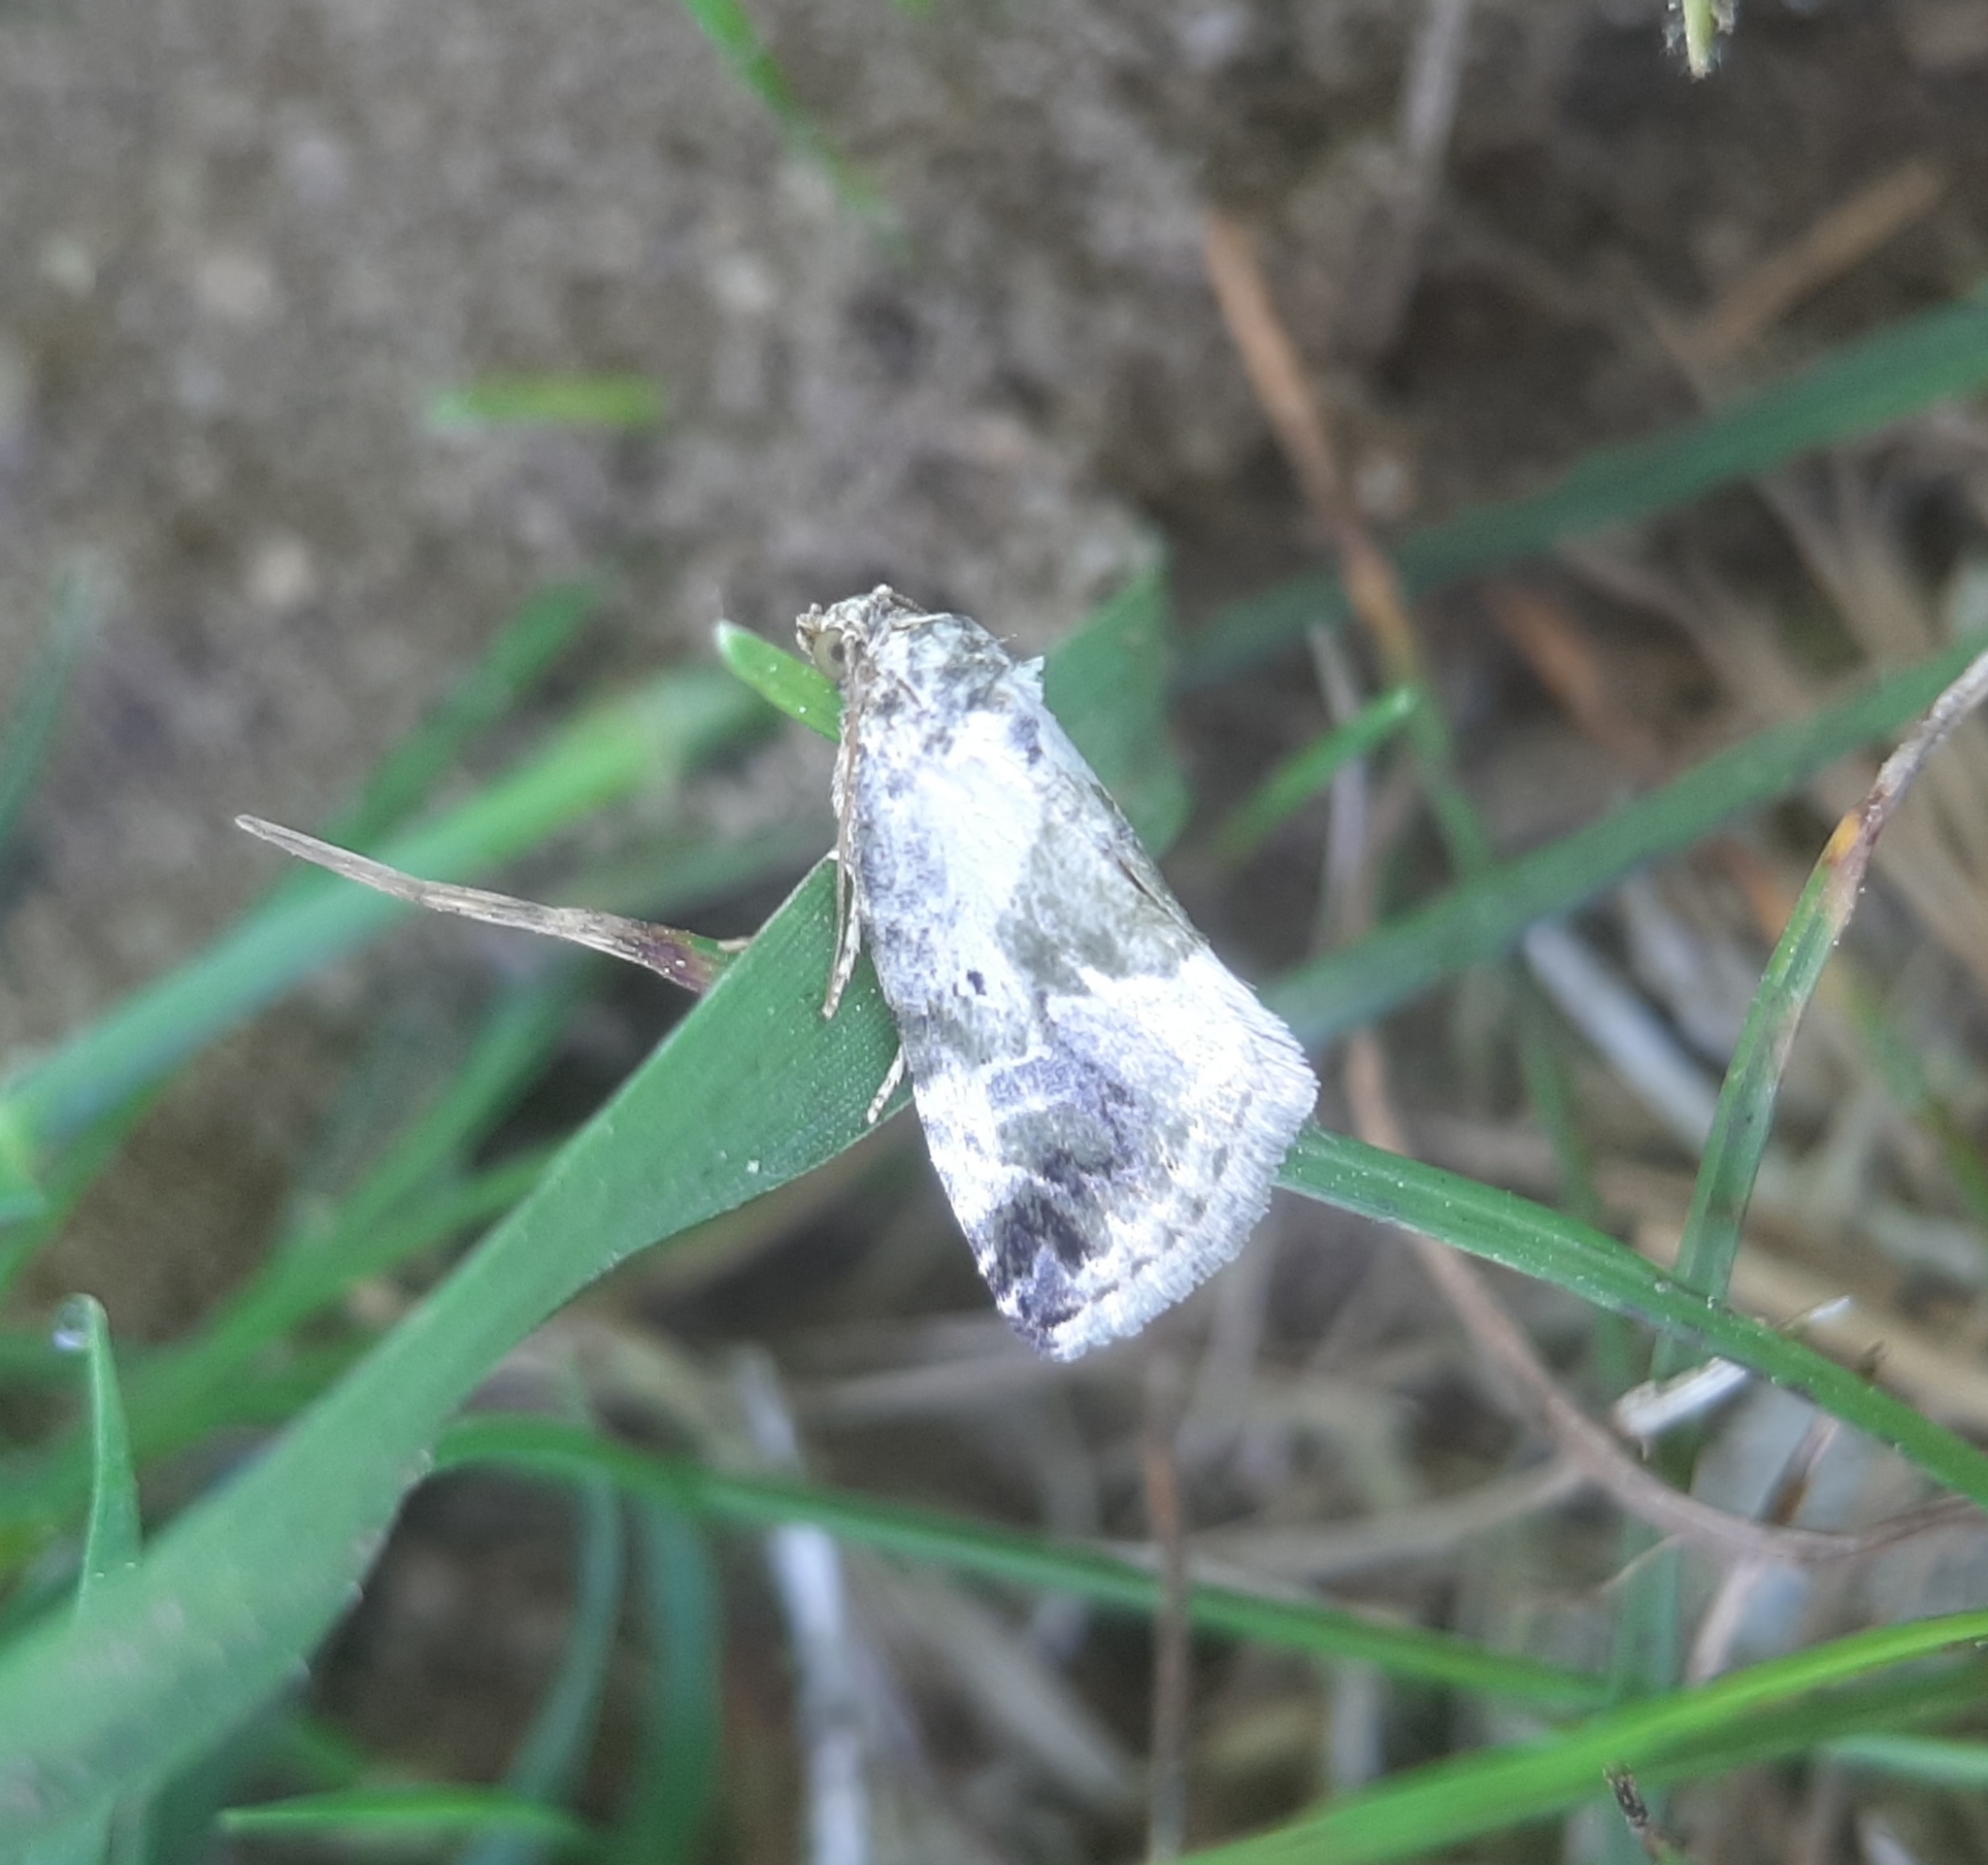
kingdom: Animalia
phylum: Arthropoda
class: Insecta
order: Lepidoptera
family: Noctuidae
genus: Maliattha
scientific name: Maliattha synochitis
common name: Black-dotted glyph
